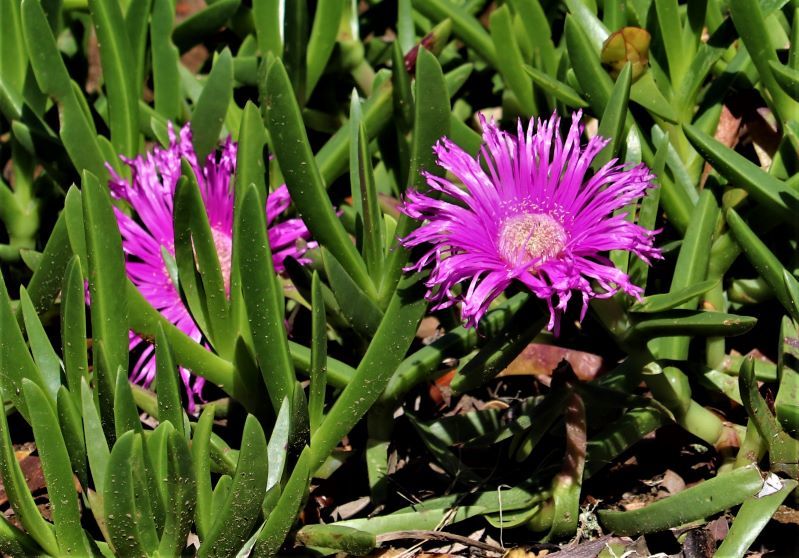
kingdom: Plantae
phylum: Tracheophyta
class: Magnoliopsida
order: Caryophyllales
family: Aizoaceae
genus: Carpobrotus
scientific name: Carpobrotus deliciosus
